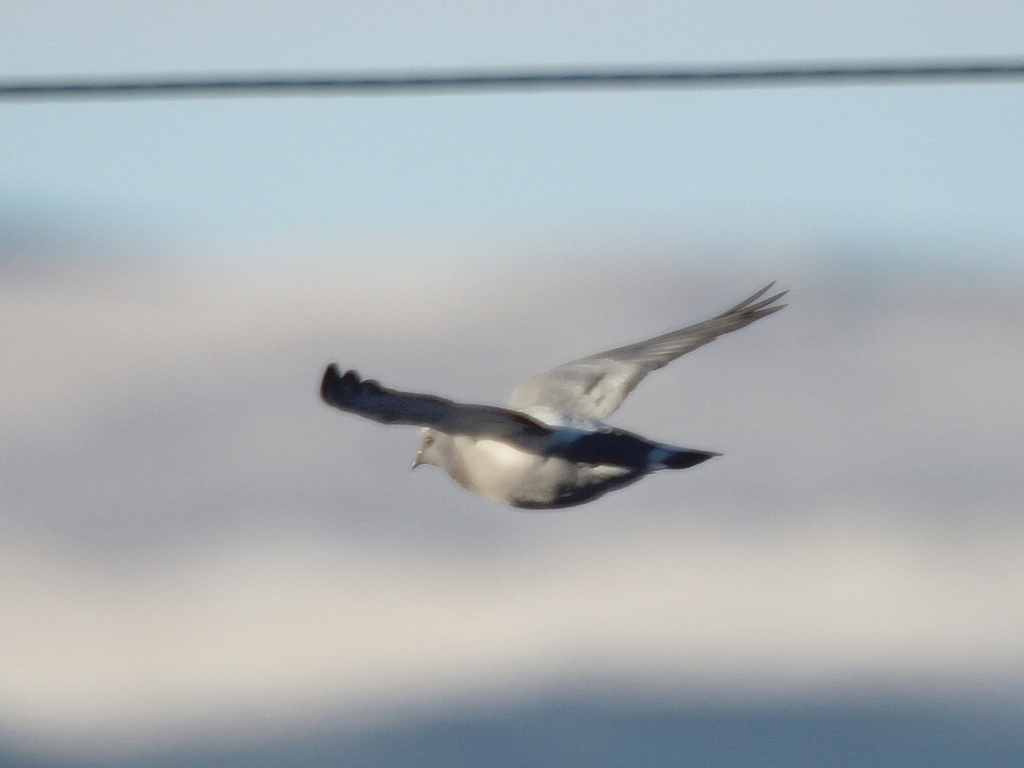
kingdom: Animalia
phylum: Chordata
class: Aves
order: Columbiformes
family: Columbidae
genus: Columba
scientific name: Columba rupestris
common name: Hill pigeon
